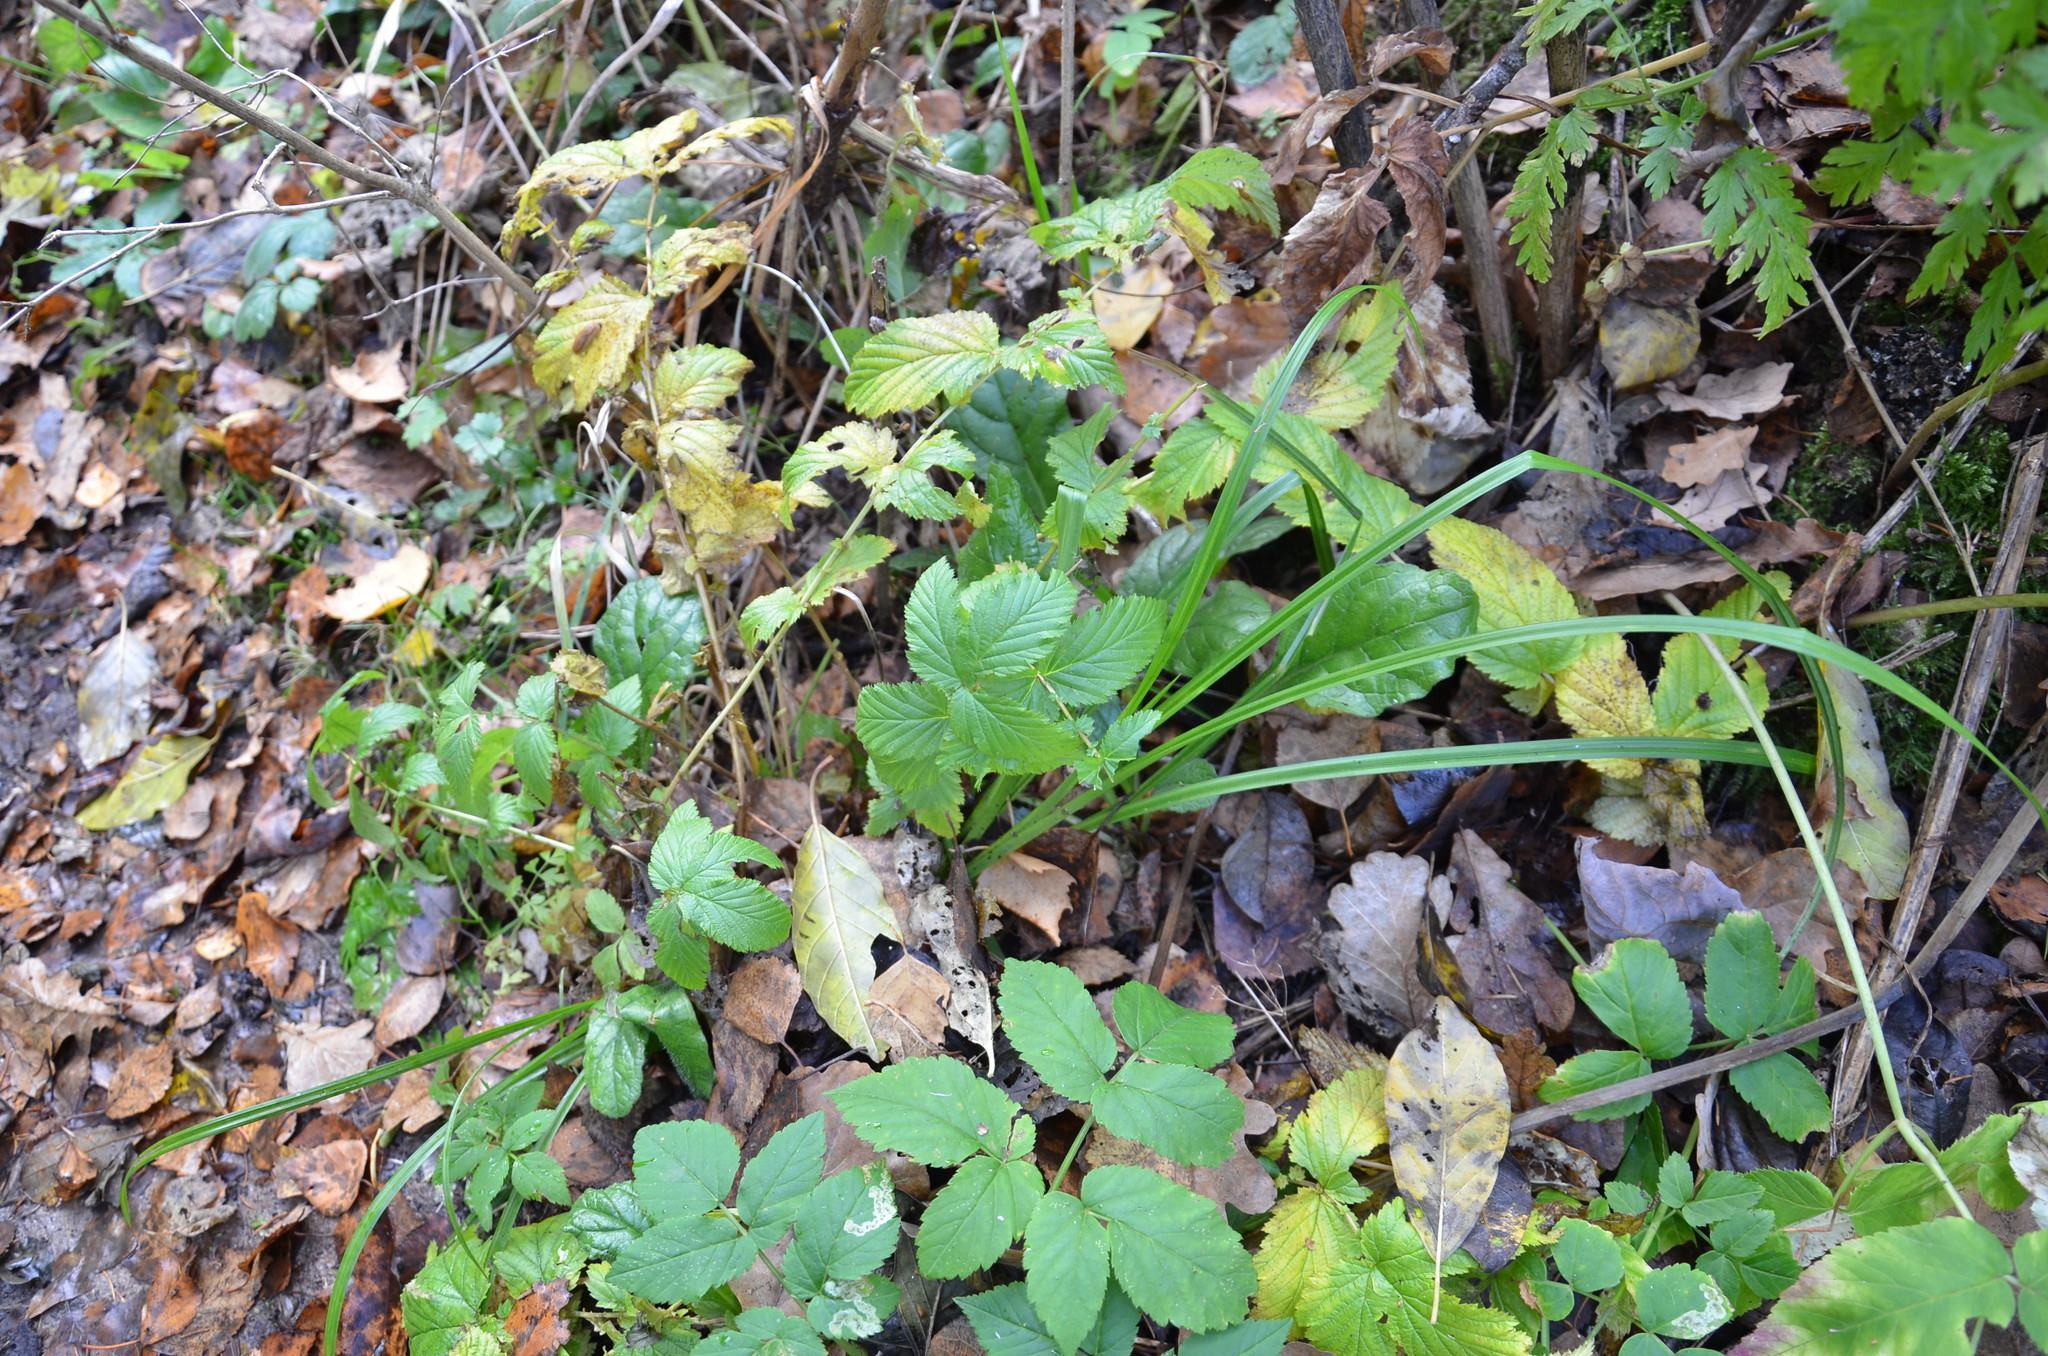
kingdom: Plantae
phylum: Tracheophyta
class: Magnoliopsida
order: Rosales
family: Rosaceae
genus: Filipendula
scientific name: Filipendula ulmaria
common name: Meadowsweet
